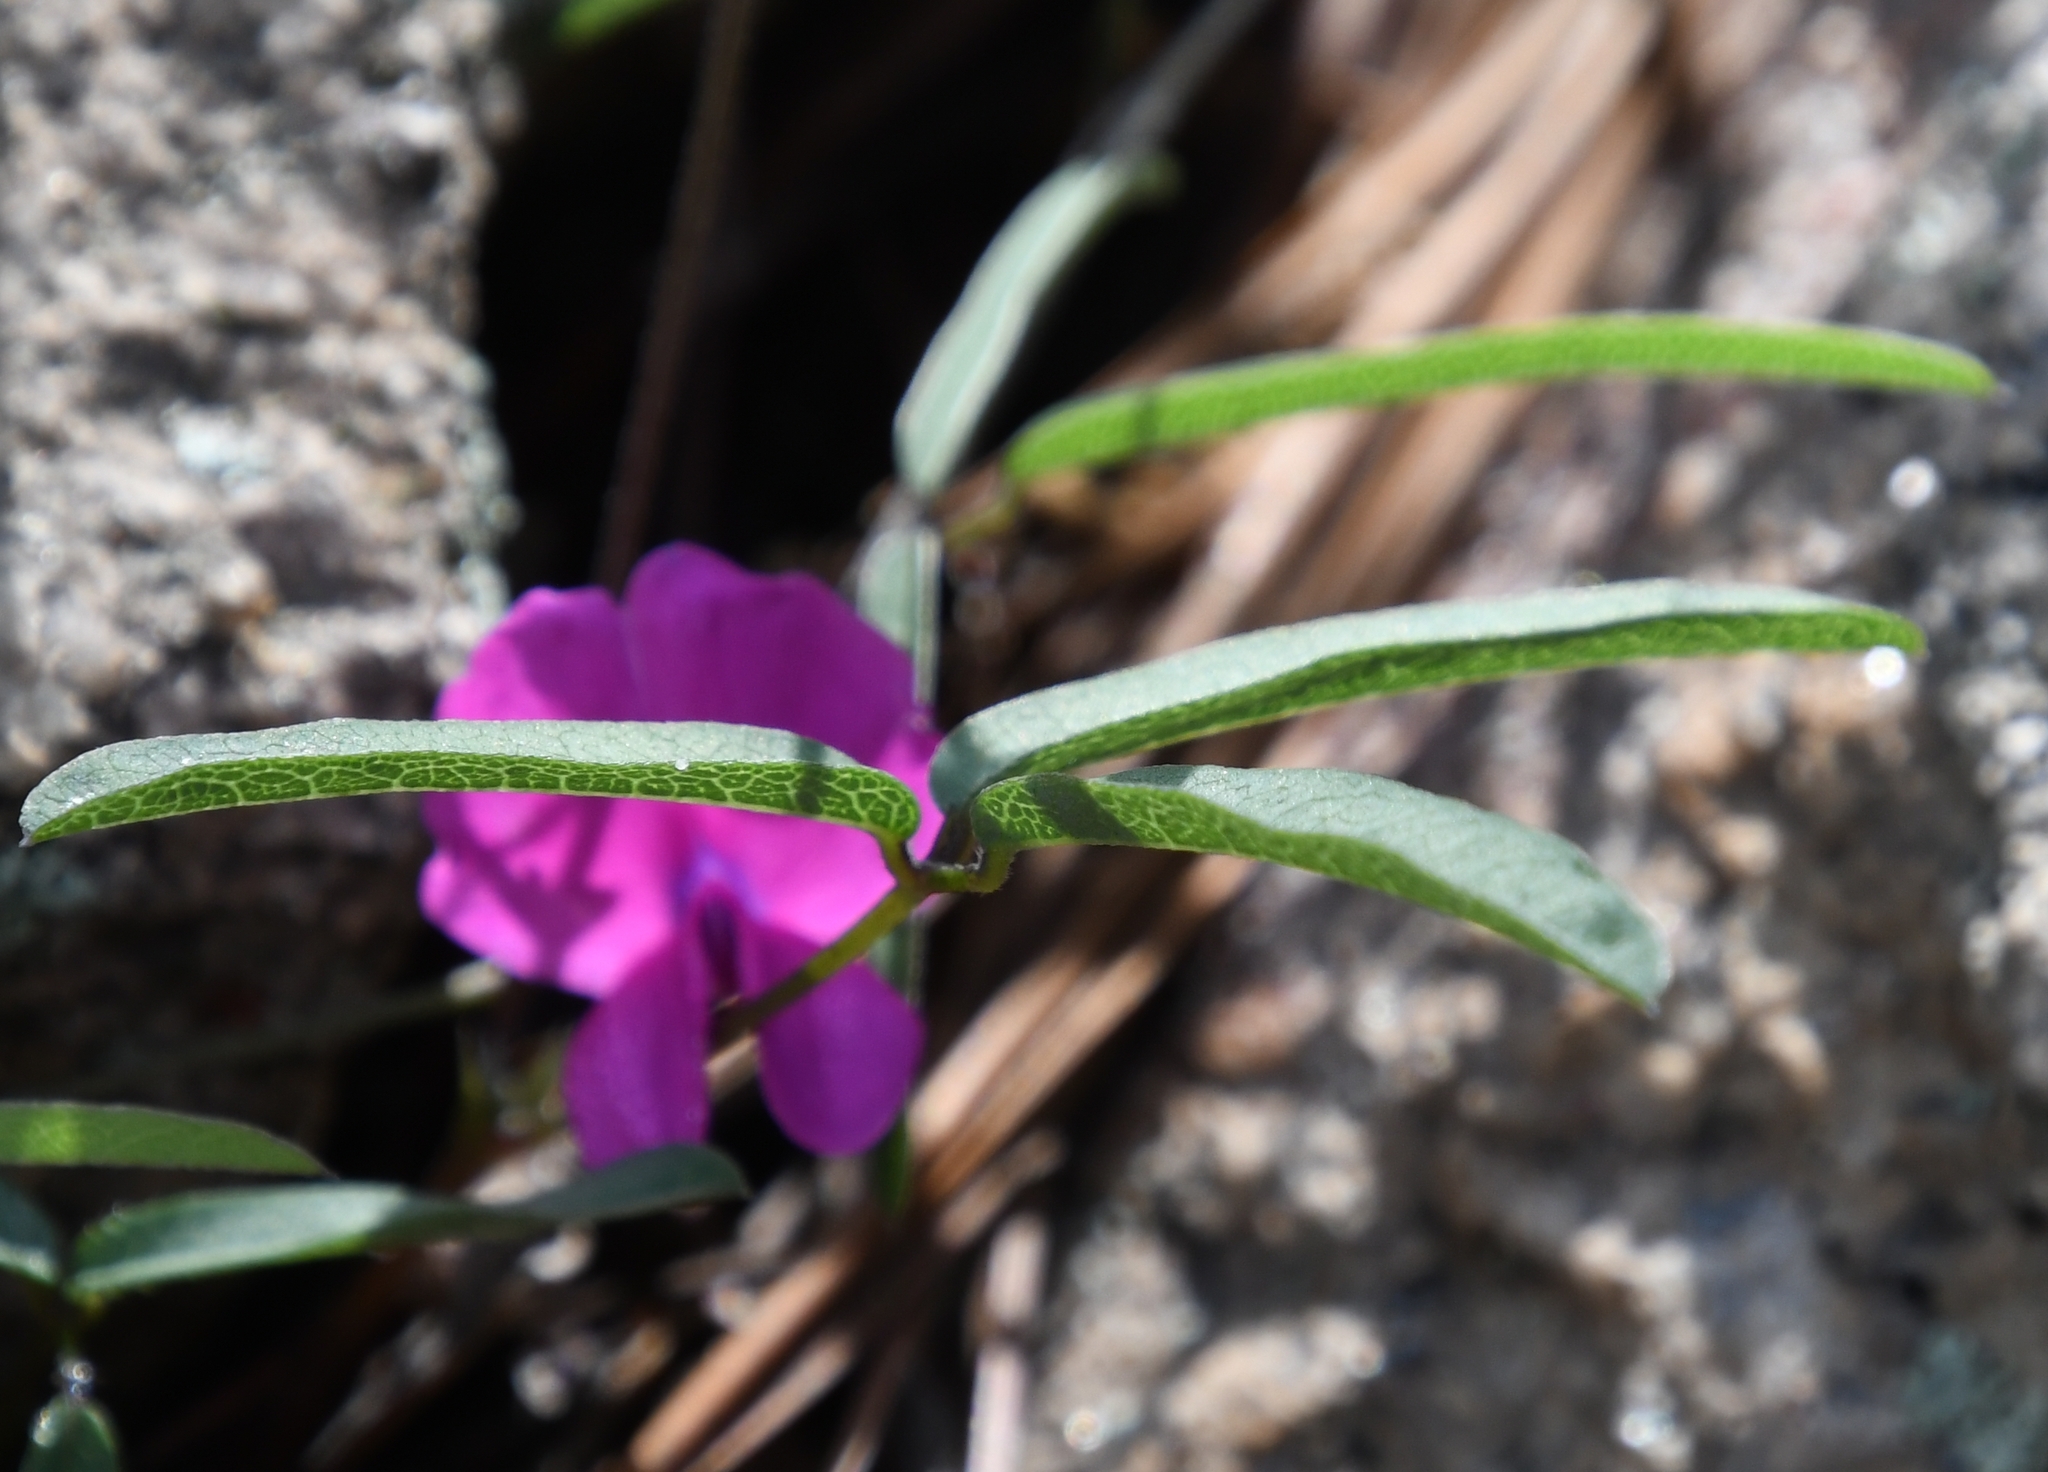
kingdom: Plantae
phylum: Tracheophyta
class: Magnoliopsida
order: Fabales
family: Fabaceae
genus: Cologania
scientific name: Cologania angustifolia
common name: Longleaf cologania
